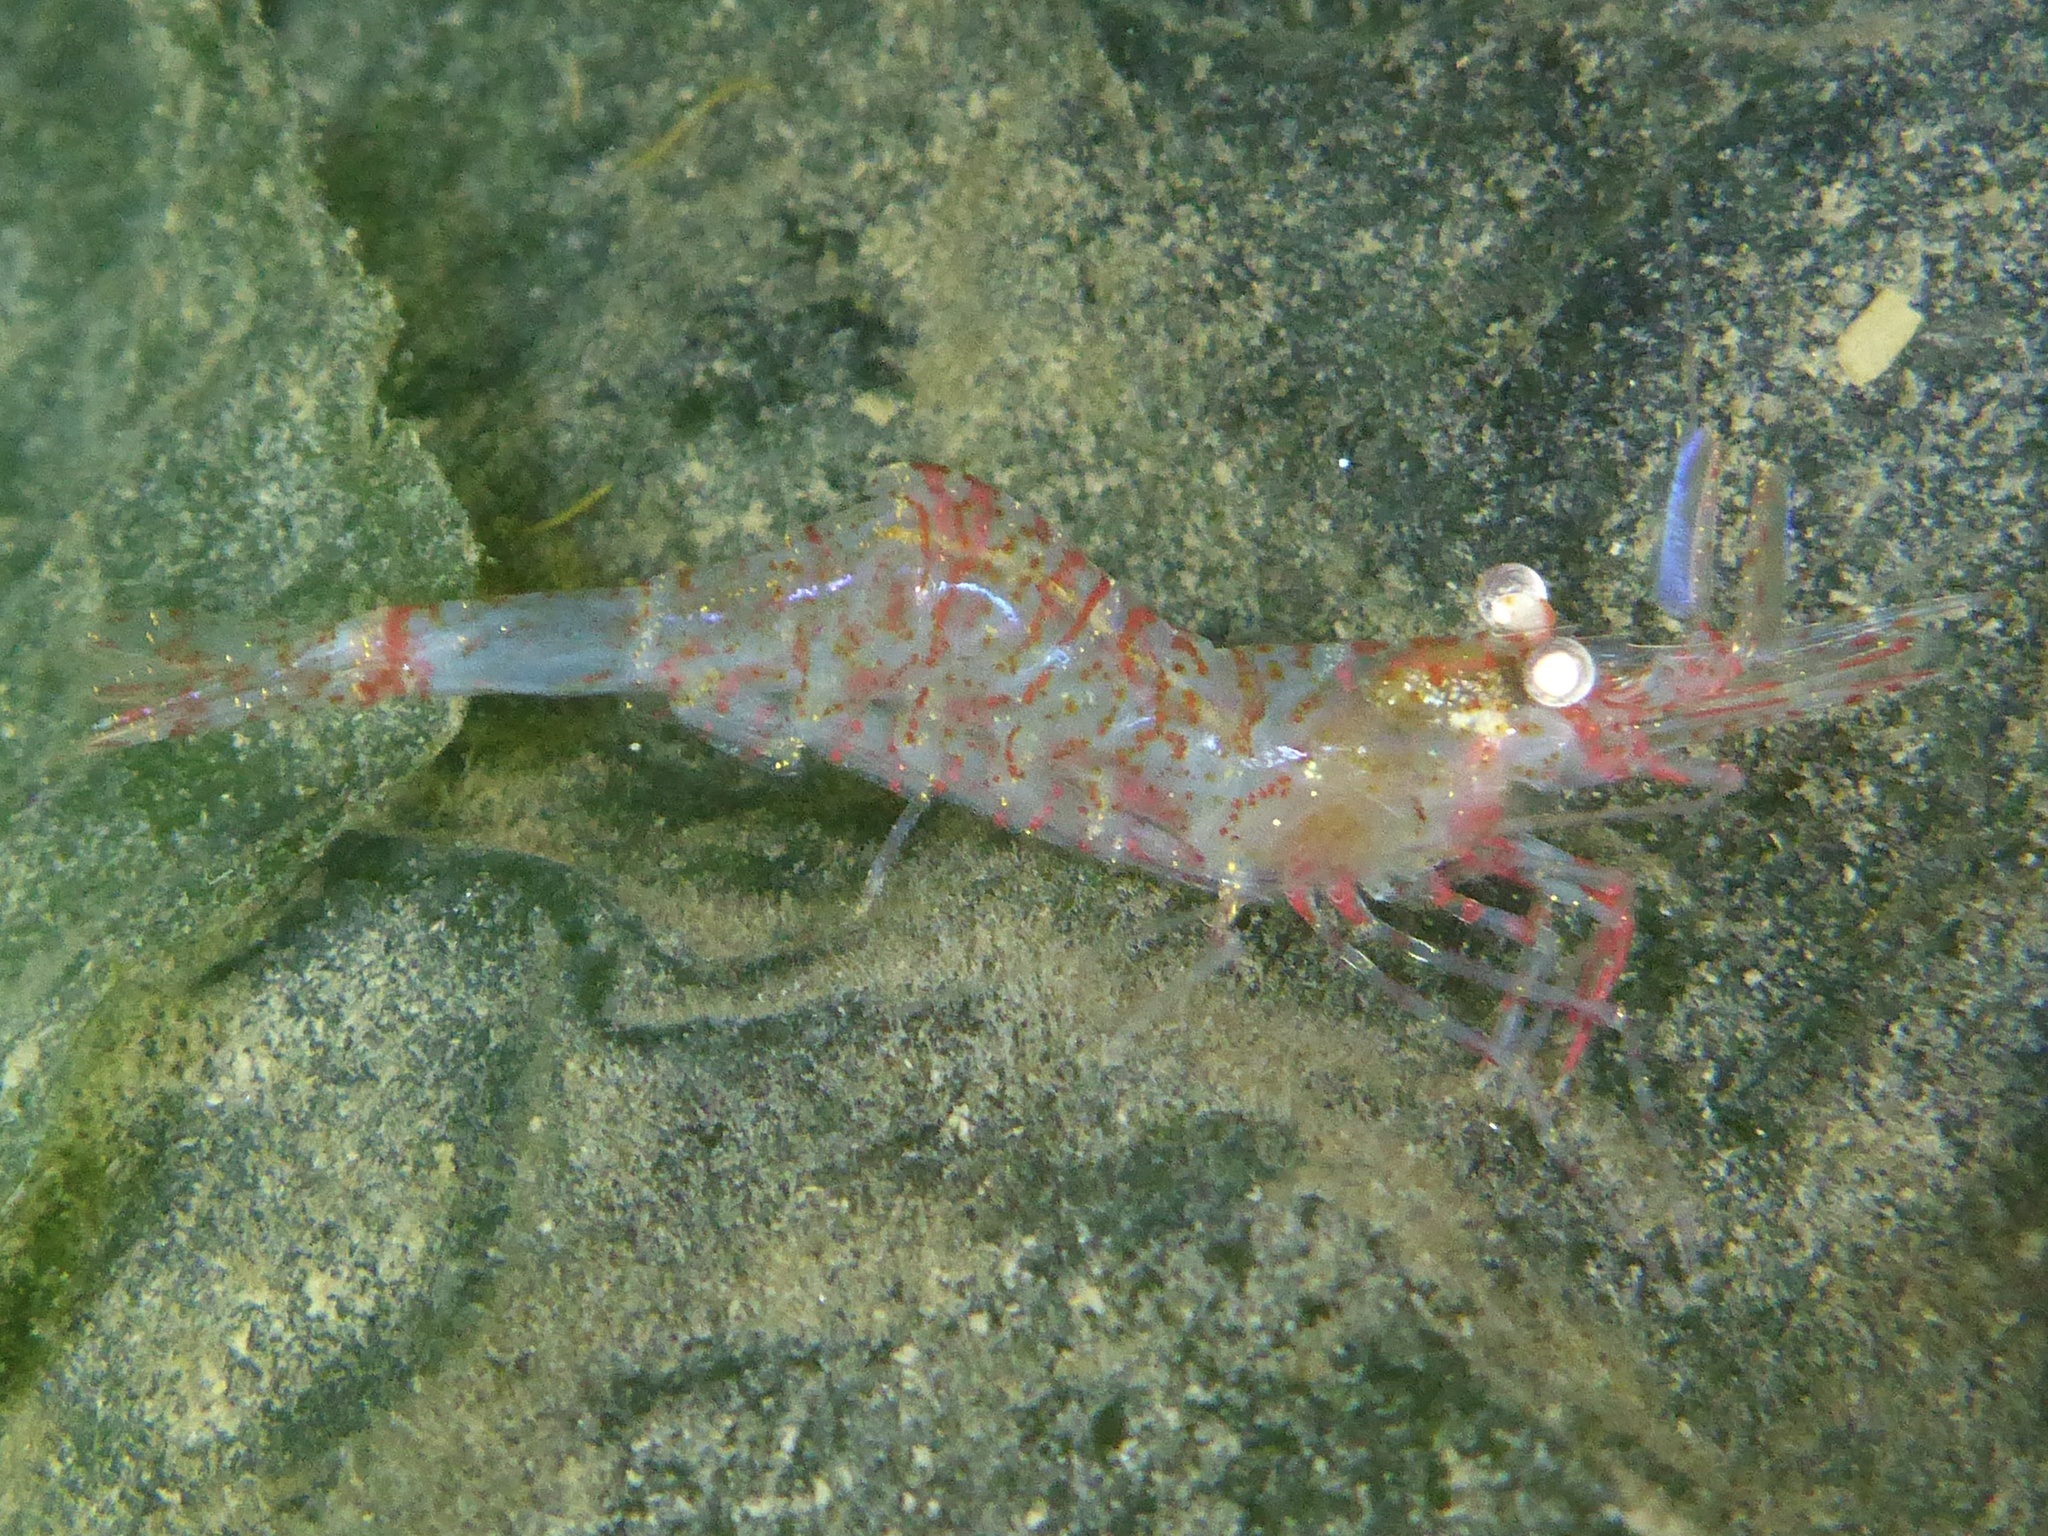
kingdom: Animalia
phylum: Arthropoda
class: Malacostraca
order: Decapoda
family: Thoridae
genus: Heptacarpus
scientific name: Heptacarpus tridens
